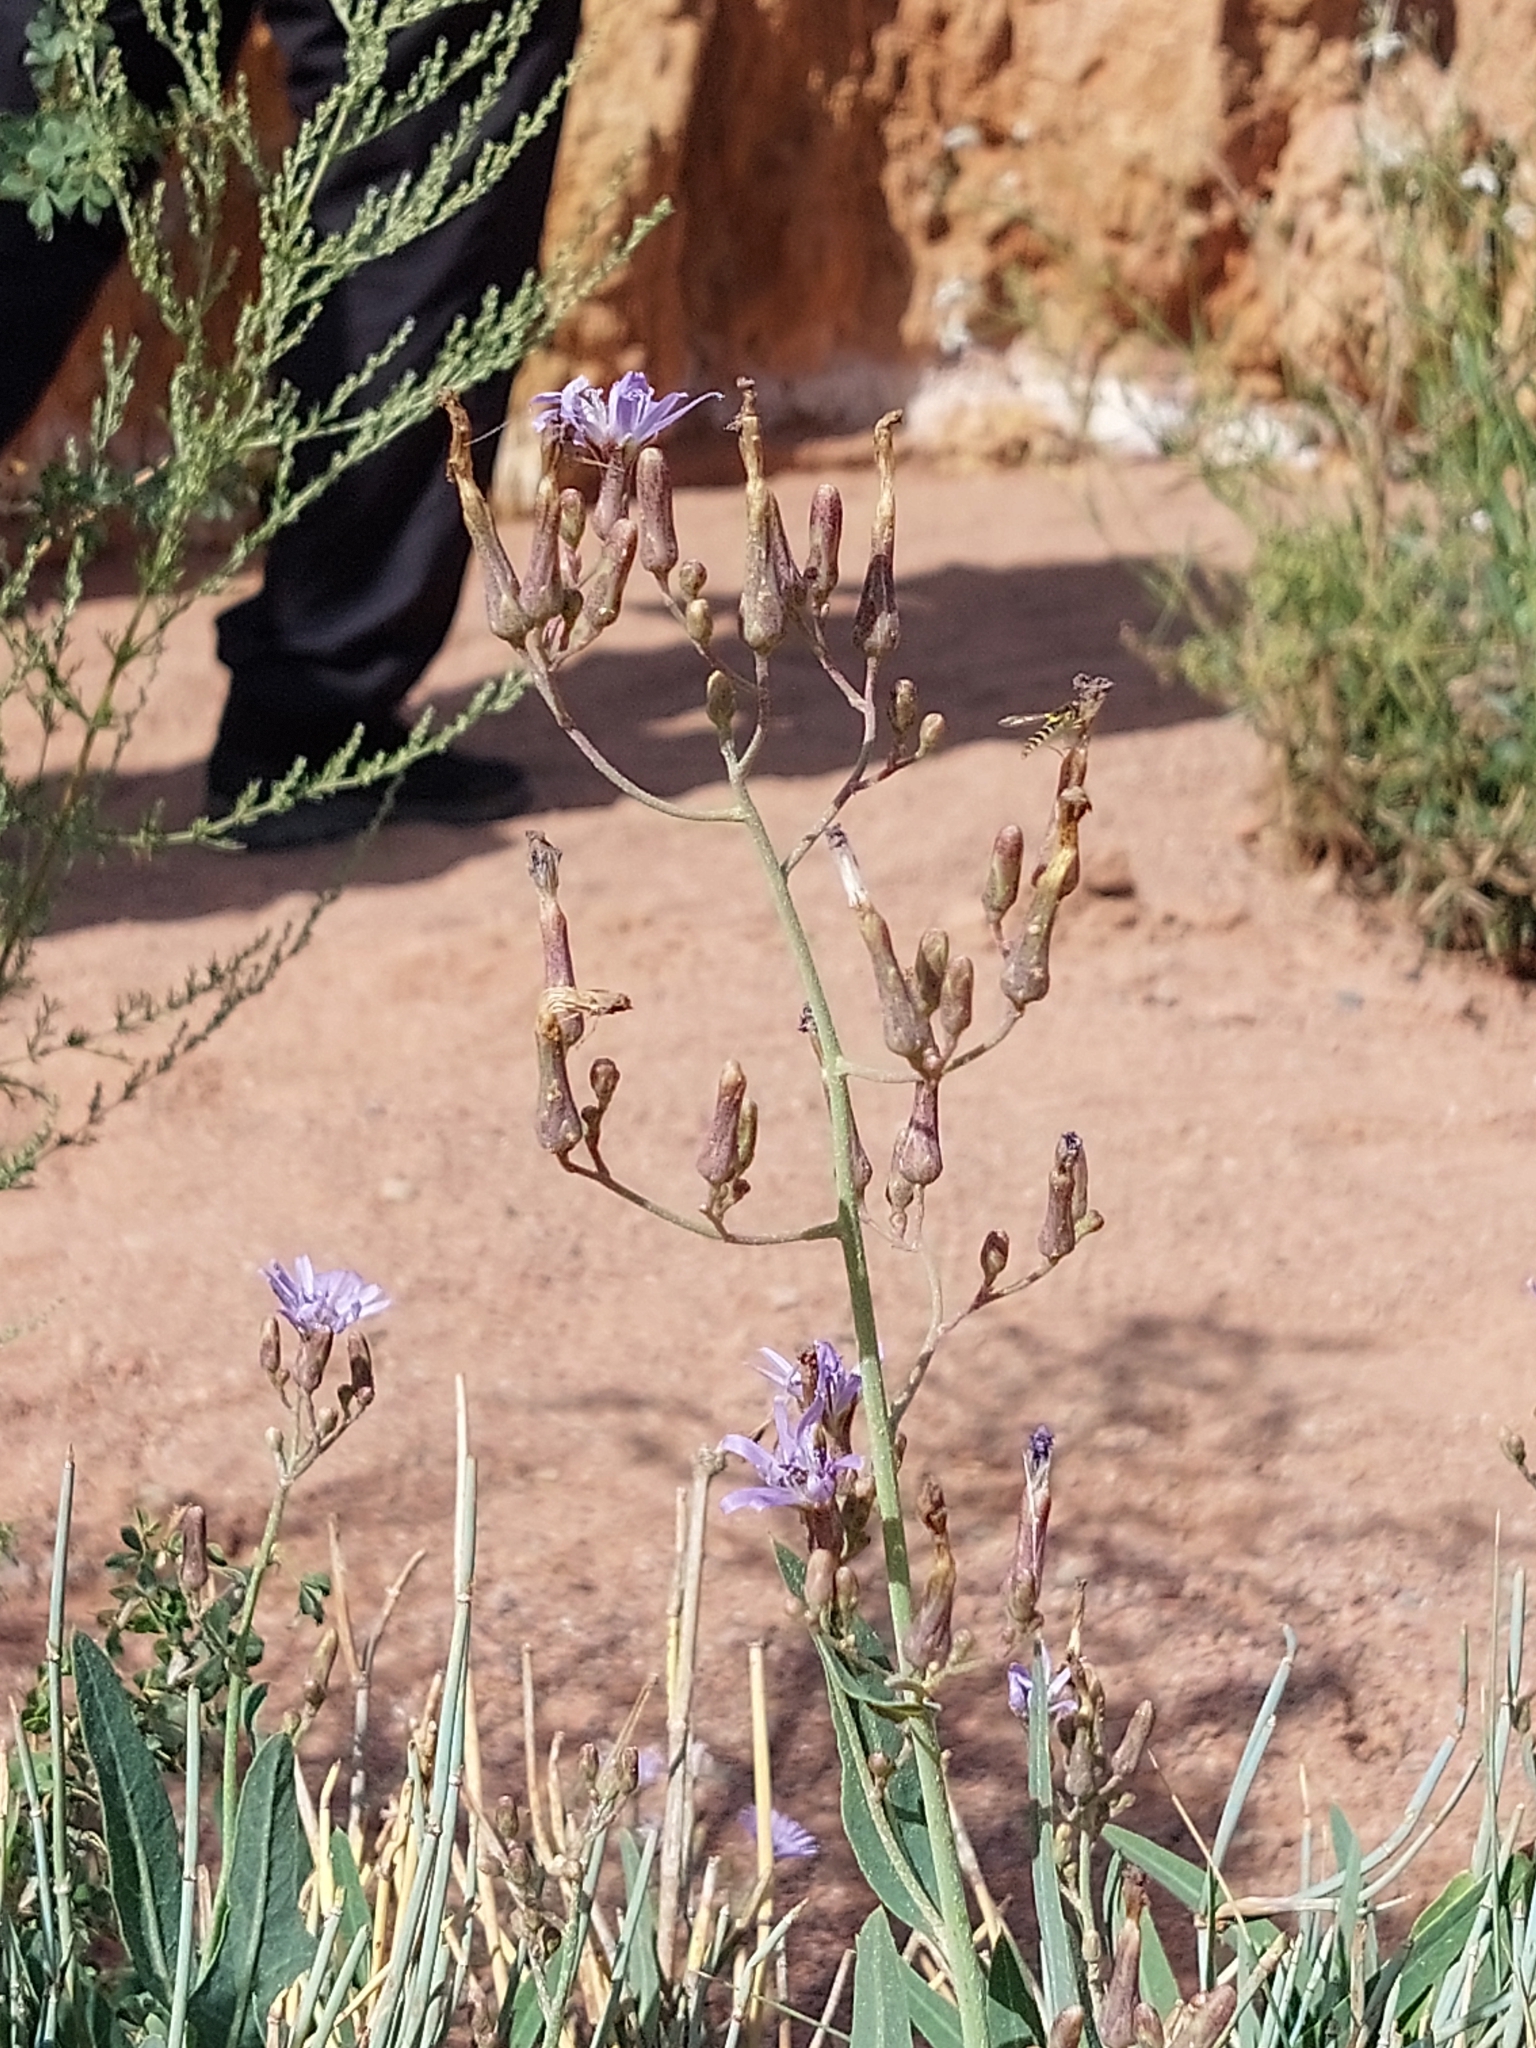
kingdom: Plantae
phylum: Tracheophyta
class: Magnoliopsida
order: Asterales
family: Asteraceae
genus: Lactuca
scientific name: Lactuca tatarica
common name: Blue lettuce
